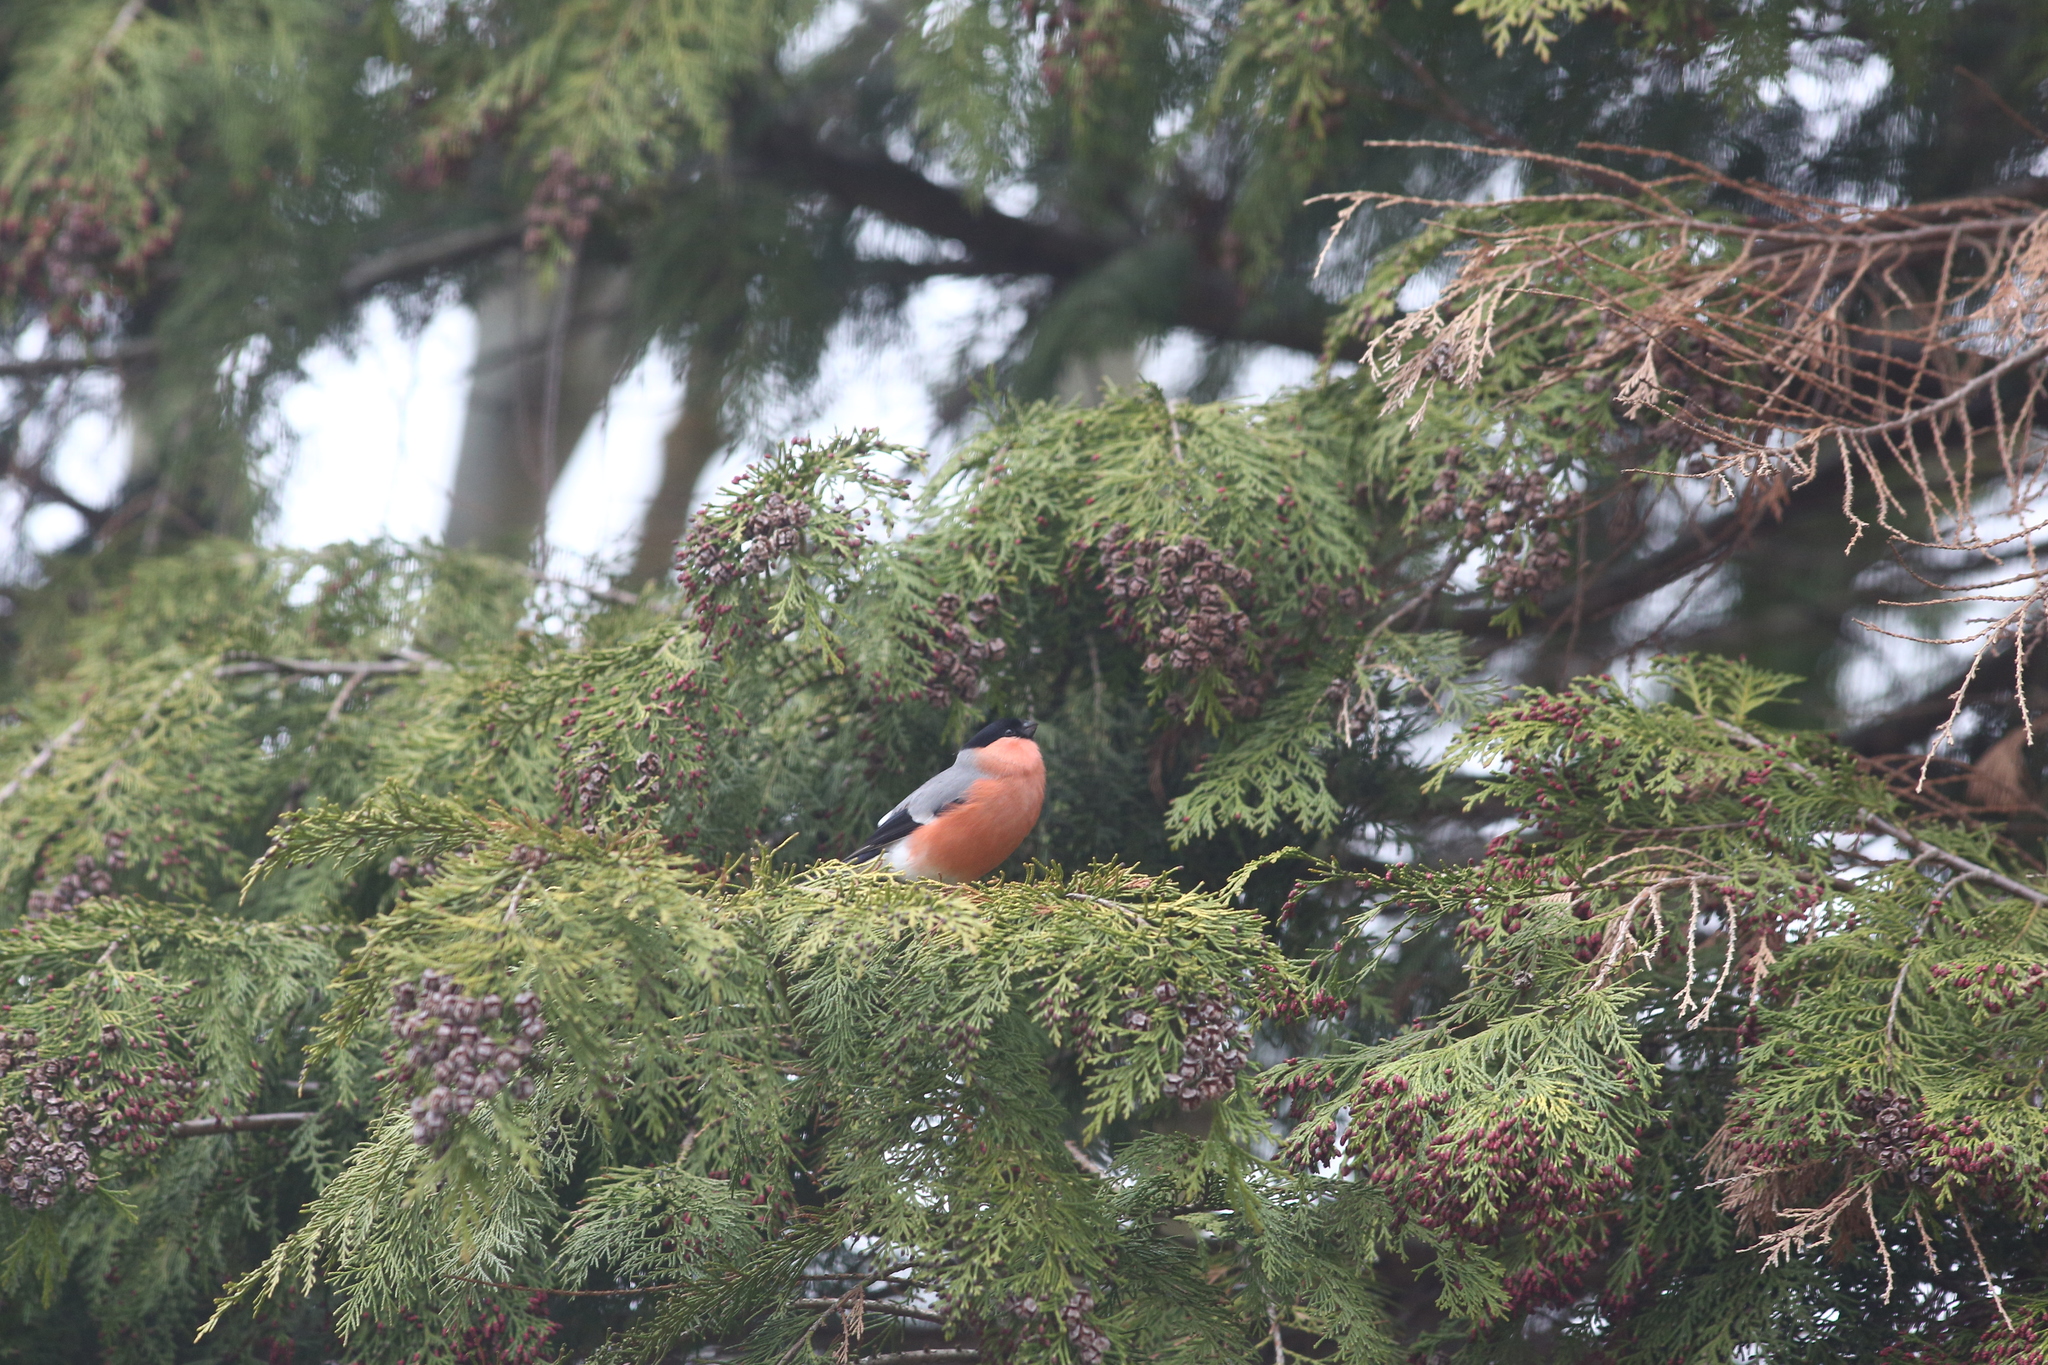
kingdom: Animalia
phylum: Chordata
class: Aves
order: Passeriformes
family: Fringillidae
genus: Pyrrhula
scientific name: Pyrrhula pyrrhula
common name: Eurasian bullfinch
